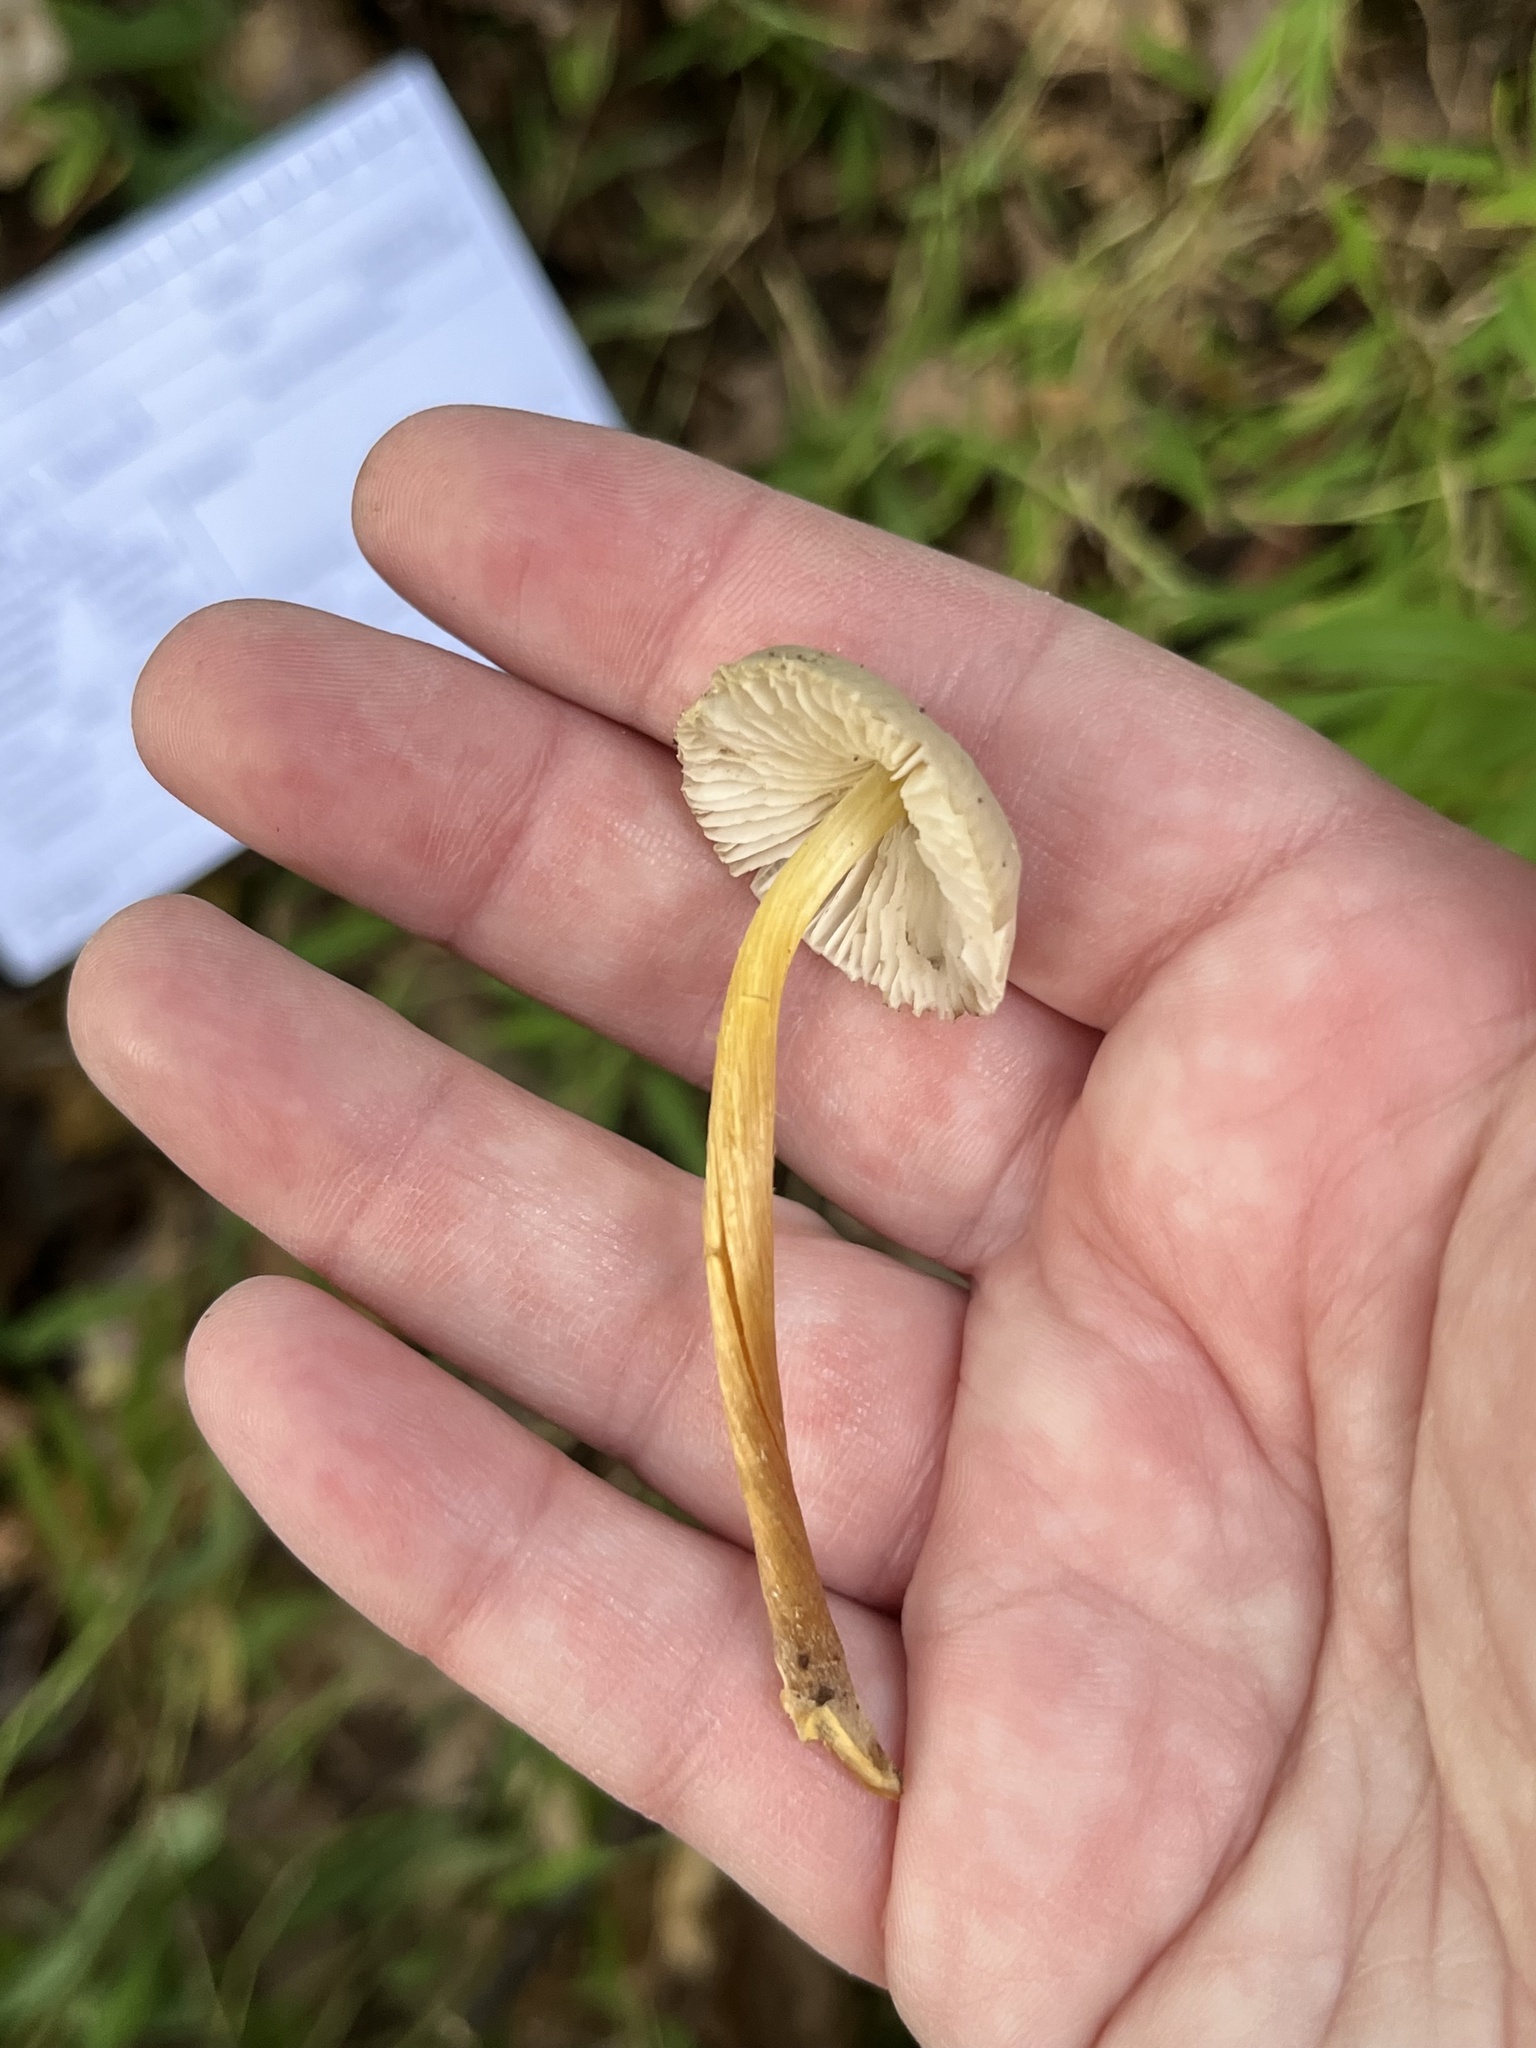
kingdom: Fungi
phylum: Basidiomycota
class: Agaricomycetes
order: Agaricales
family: Mycenaceae
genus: Mycena
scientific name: Mycena inclinata
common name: Clustered bonnet
